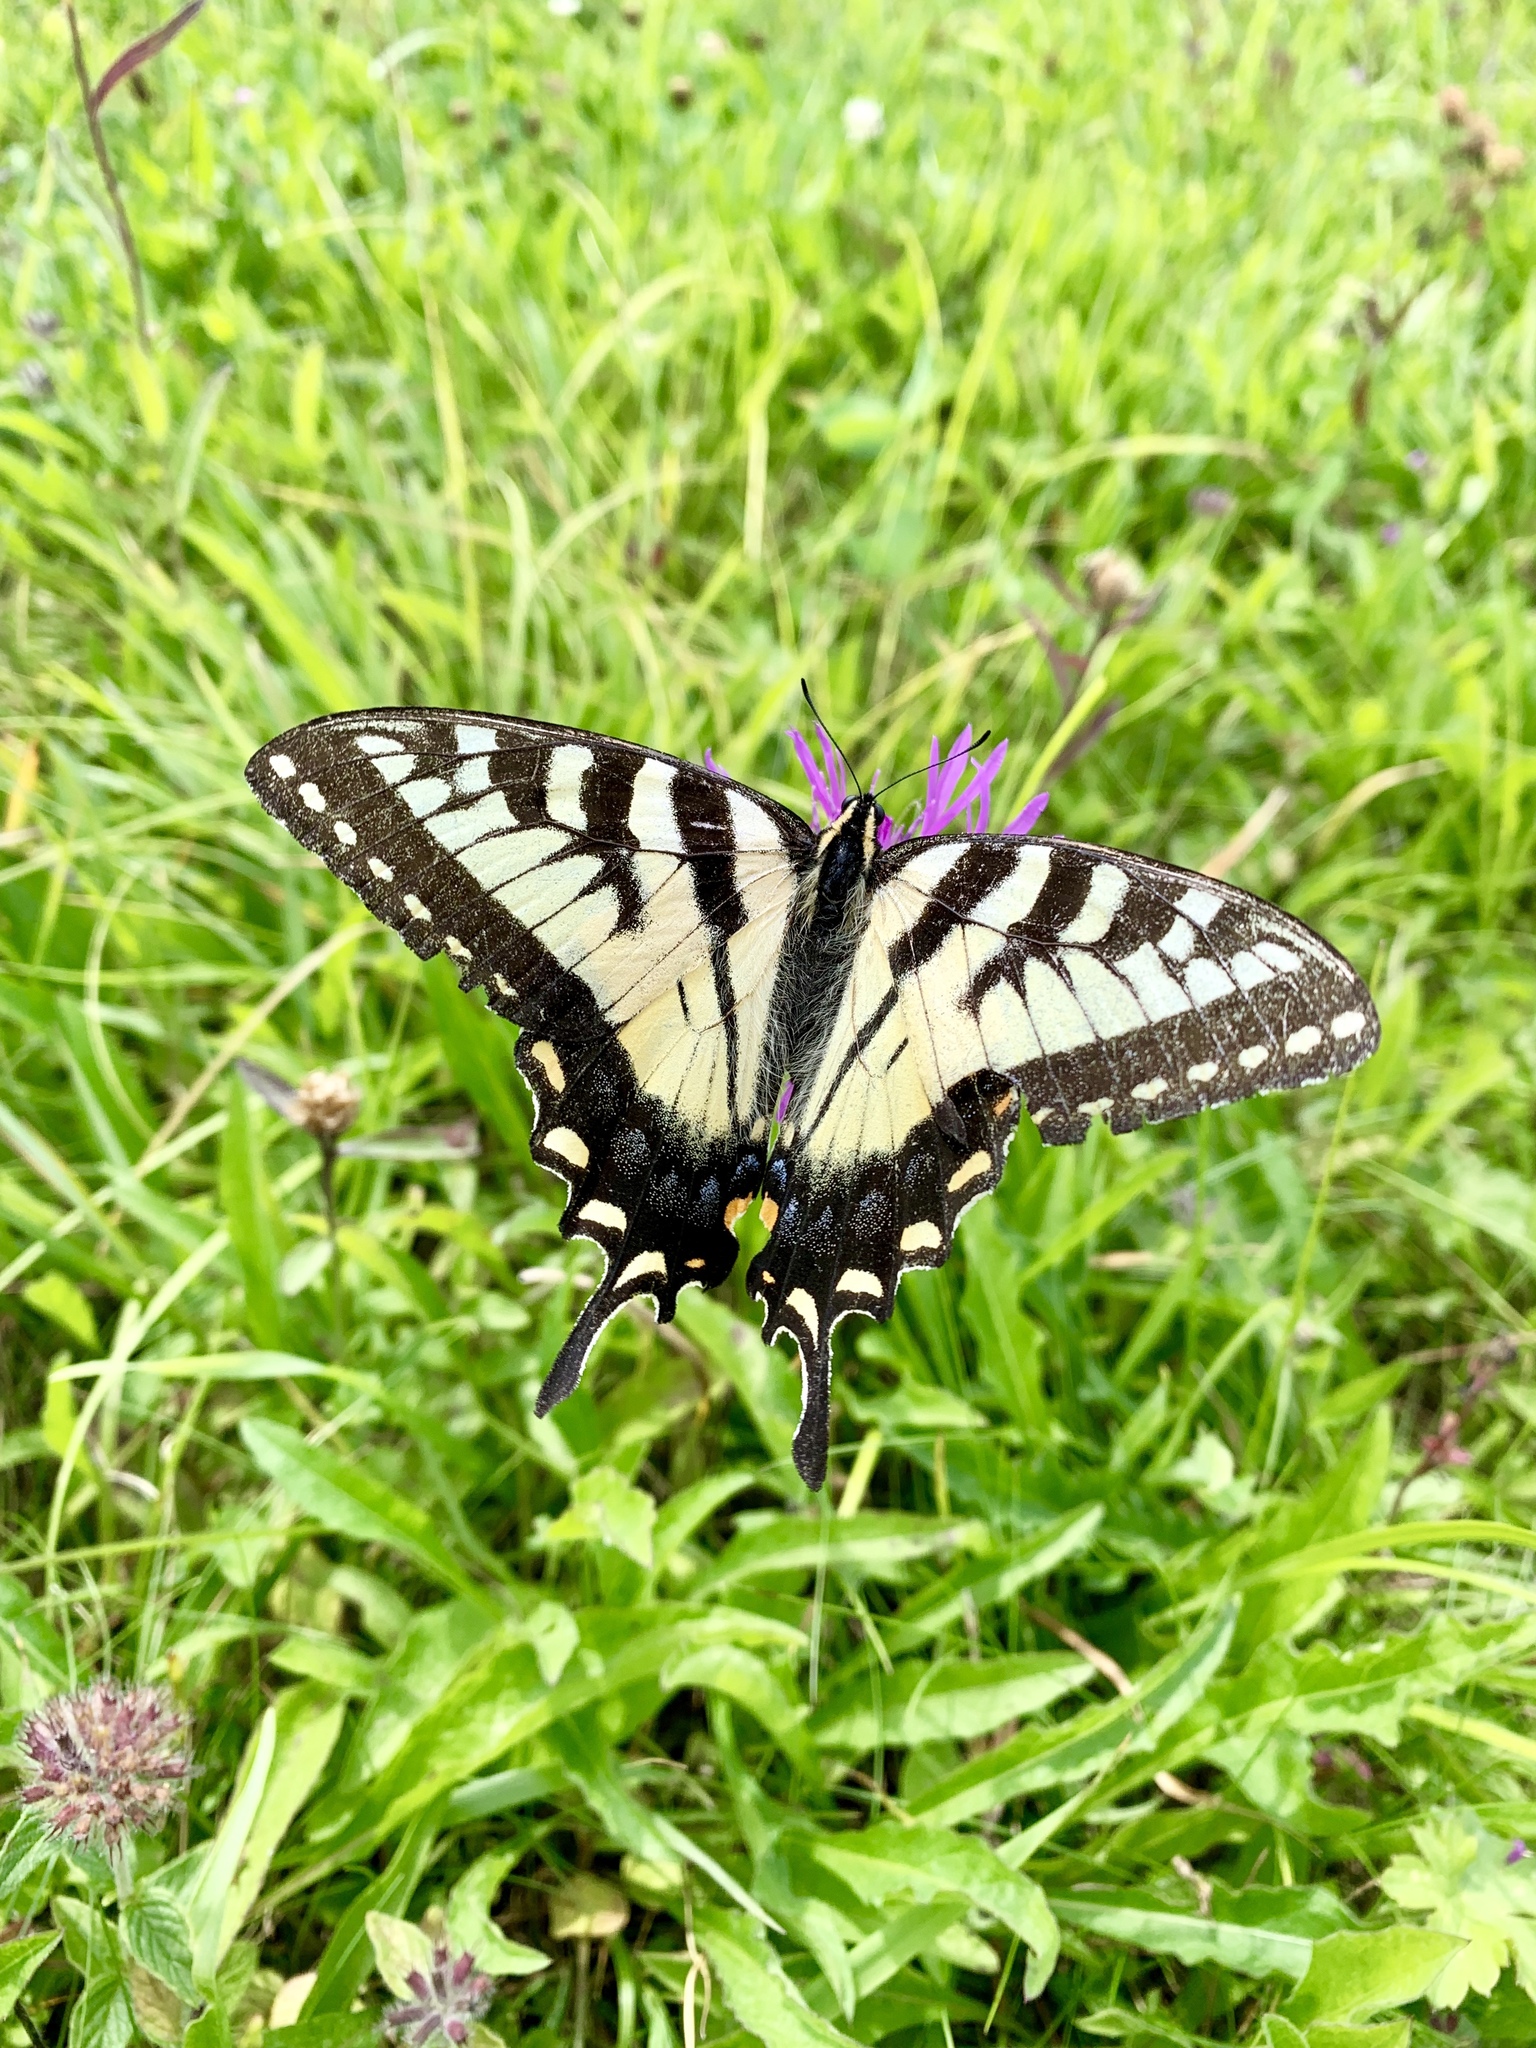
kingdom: Animalia
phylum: Arthropoda
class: Insecta
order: Lepidoptera
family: Papilionidae
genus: Papilio
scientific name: Papilio glaucus
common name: Tiger swallowtail
